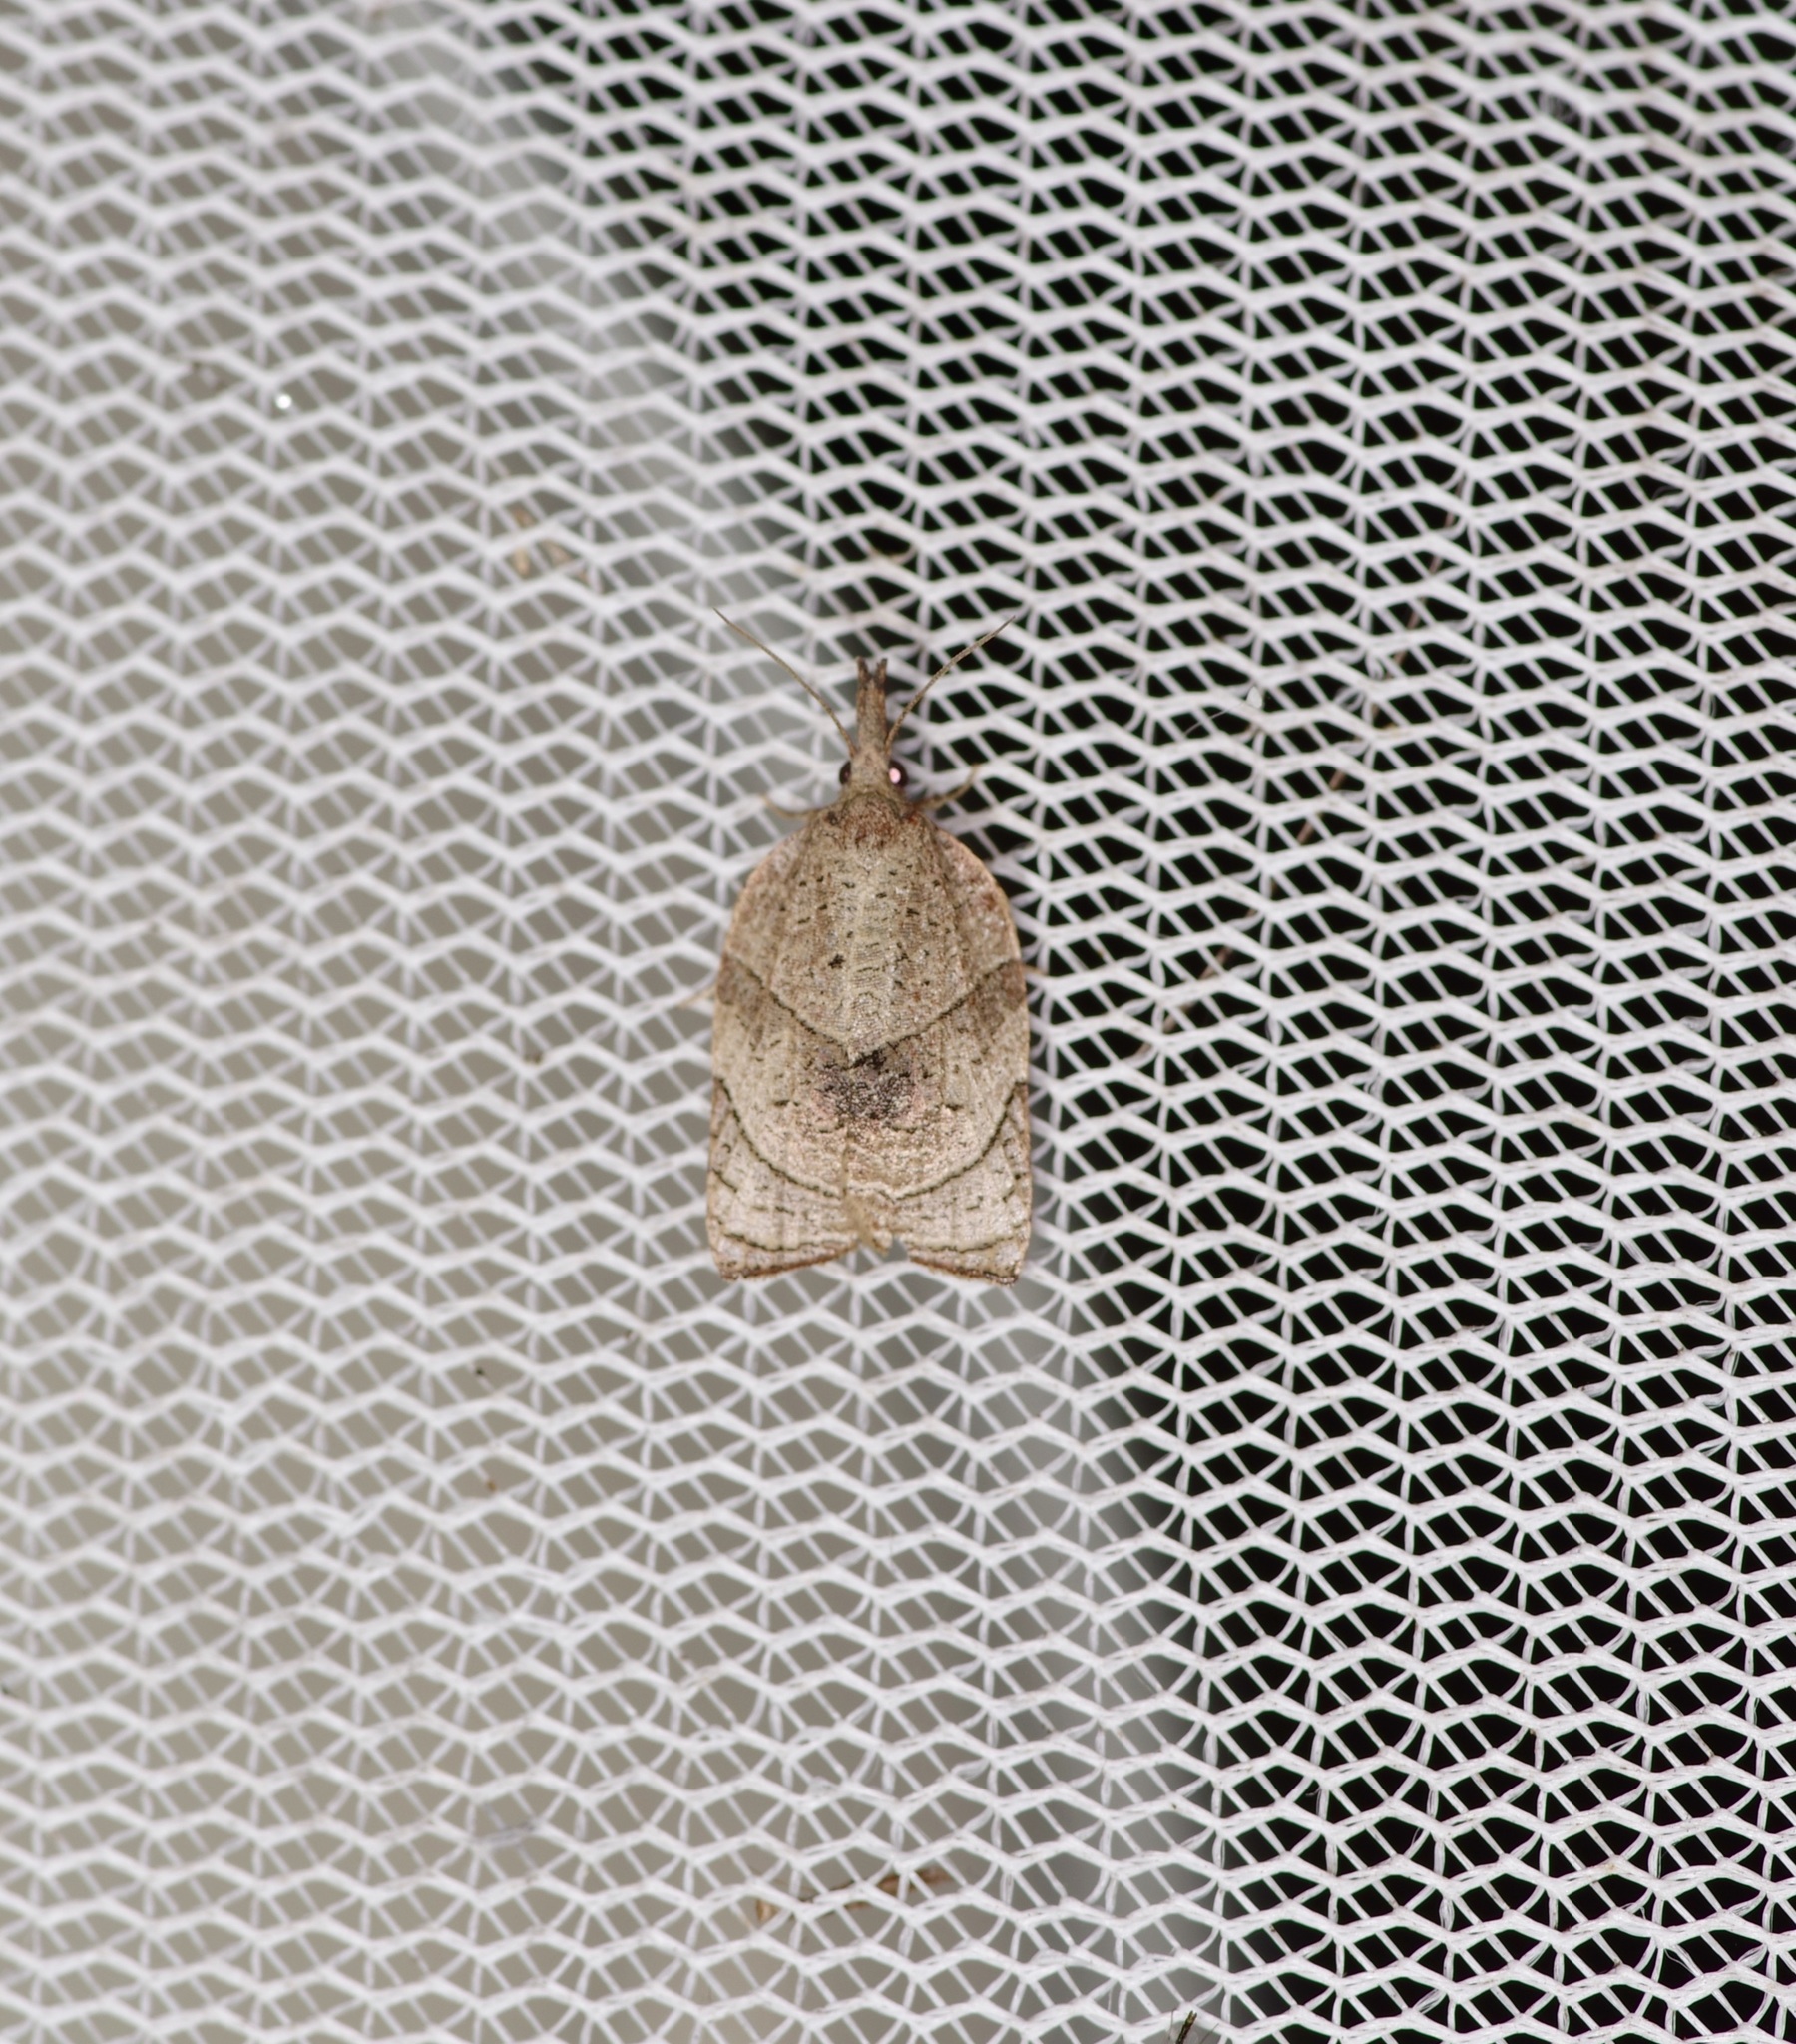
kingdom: Animalia
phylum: Arthropoda
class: Insecta
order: Lepidoptera
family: Tortricidae
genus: Platynota
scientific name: Platynota rostrana
